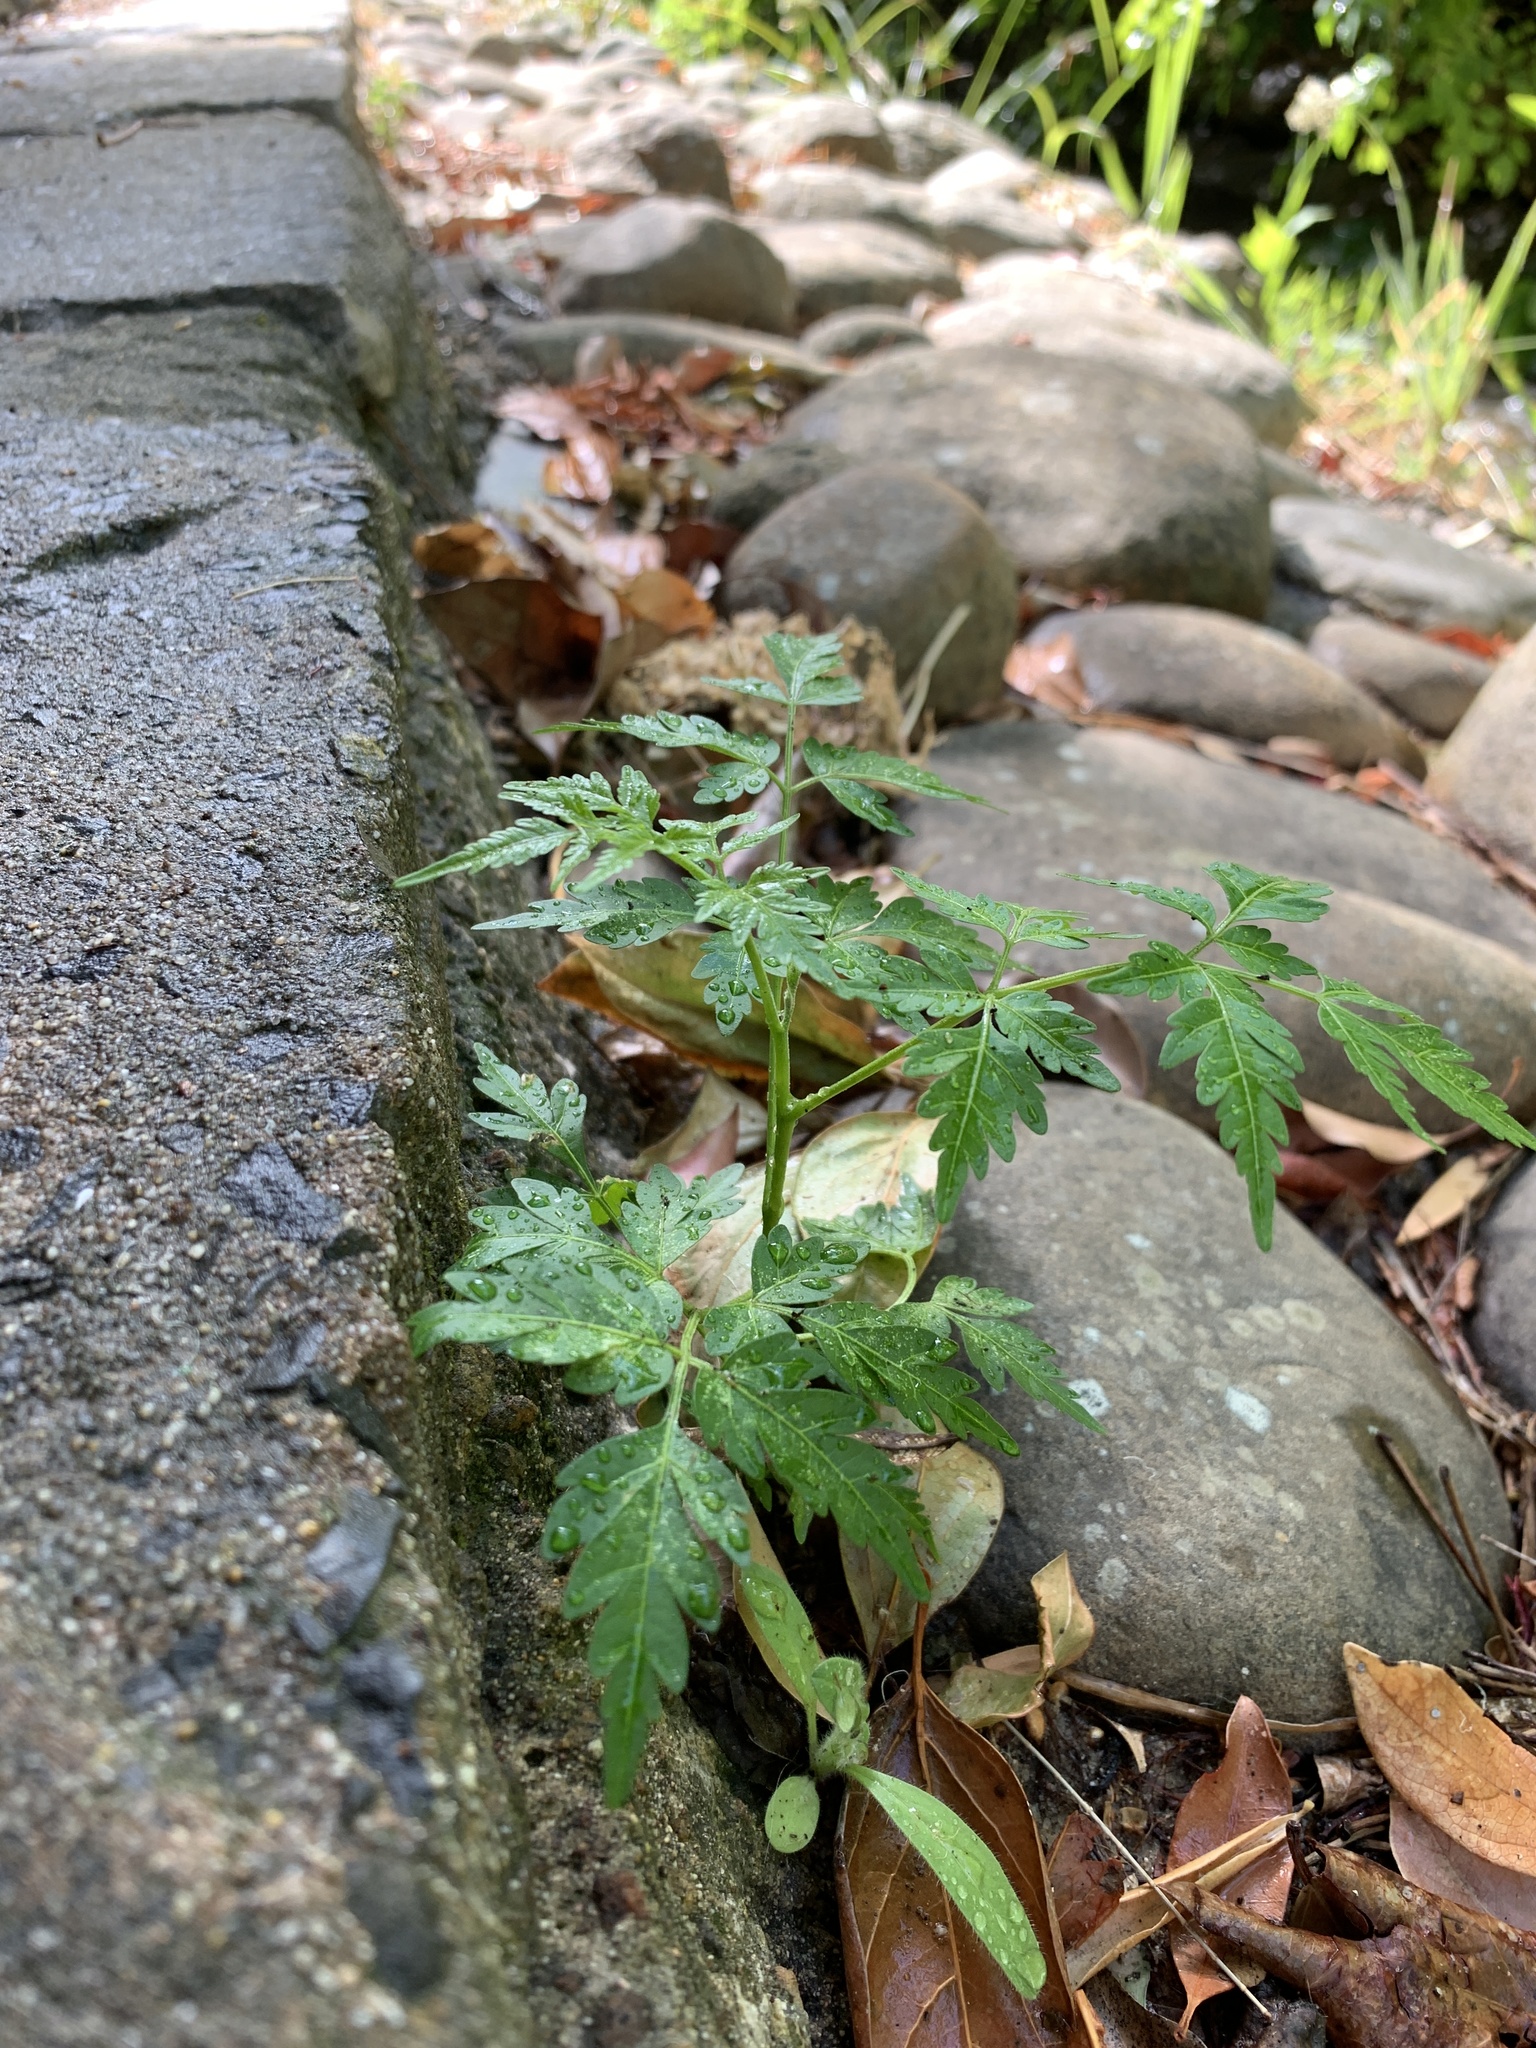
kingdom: Plantae
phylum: Tracheophyta
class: Magnoliopsida
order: Sapindales
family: Meliaceae
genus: Melia
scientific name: Melia azedarach
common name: Chinaberrytree
